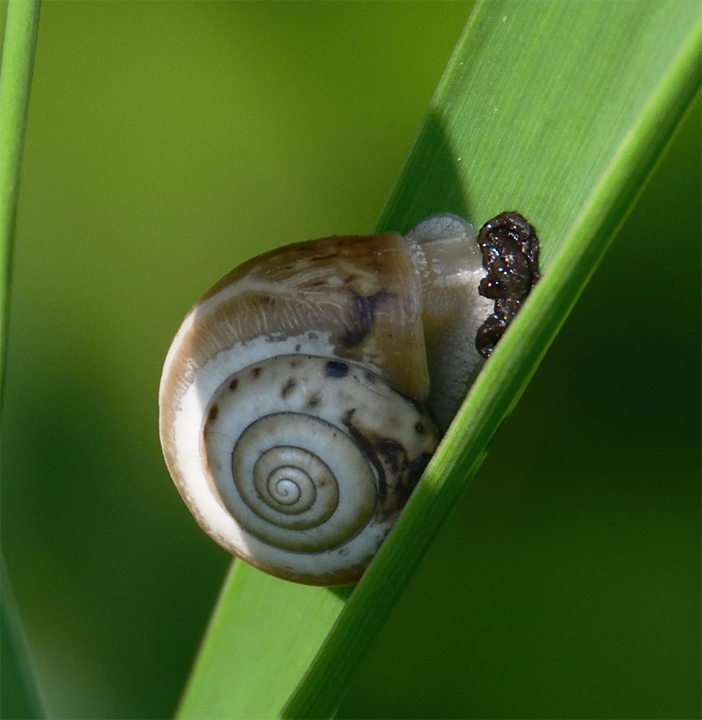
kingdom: Animalia
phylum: Mollusca
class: Gastropoda
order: Stylommatophora
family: Hygromiidae
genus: Monacha
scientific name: Monacha cartusiana
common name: Carthusian snail
